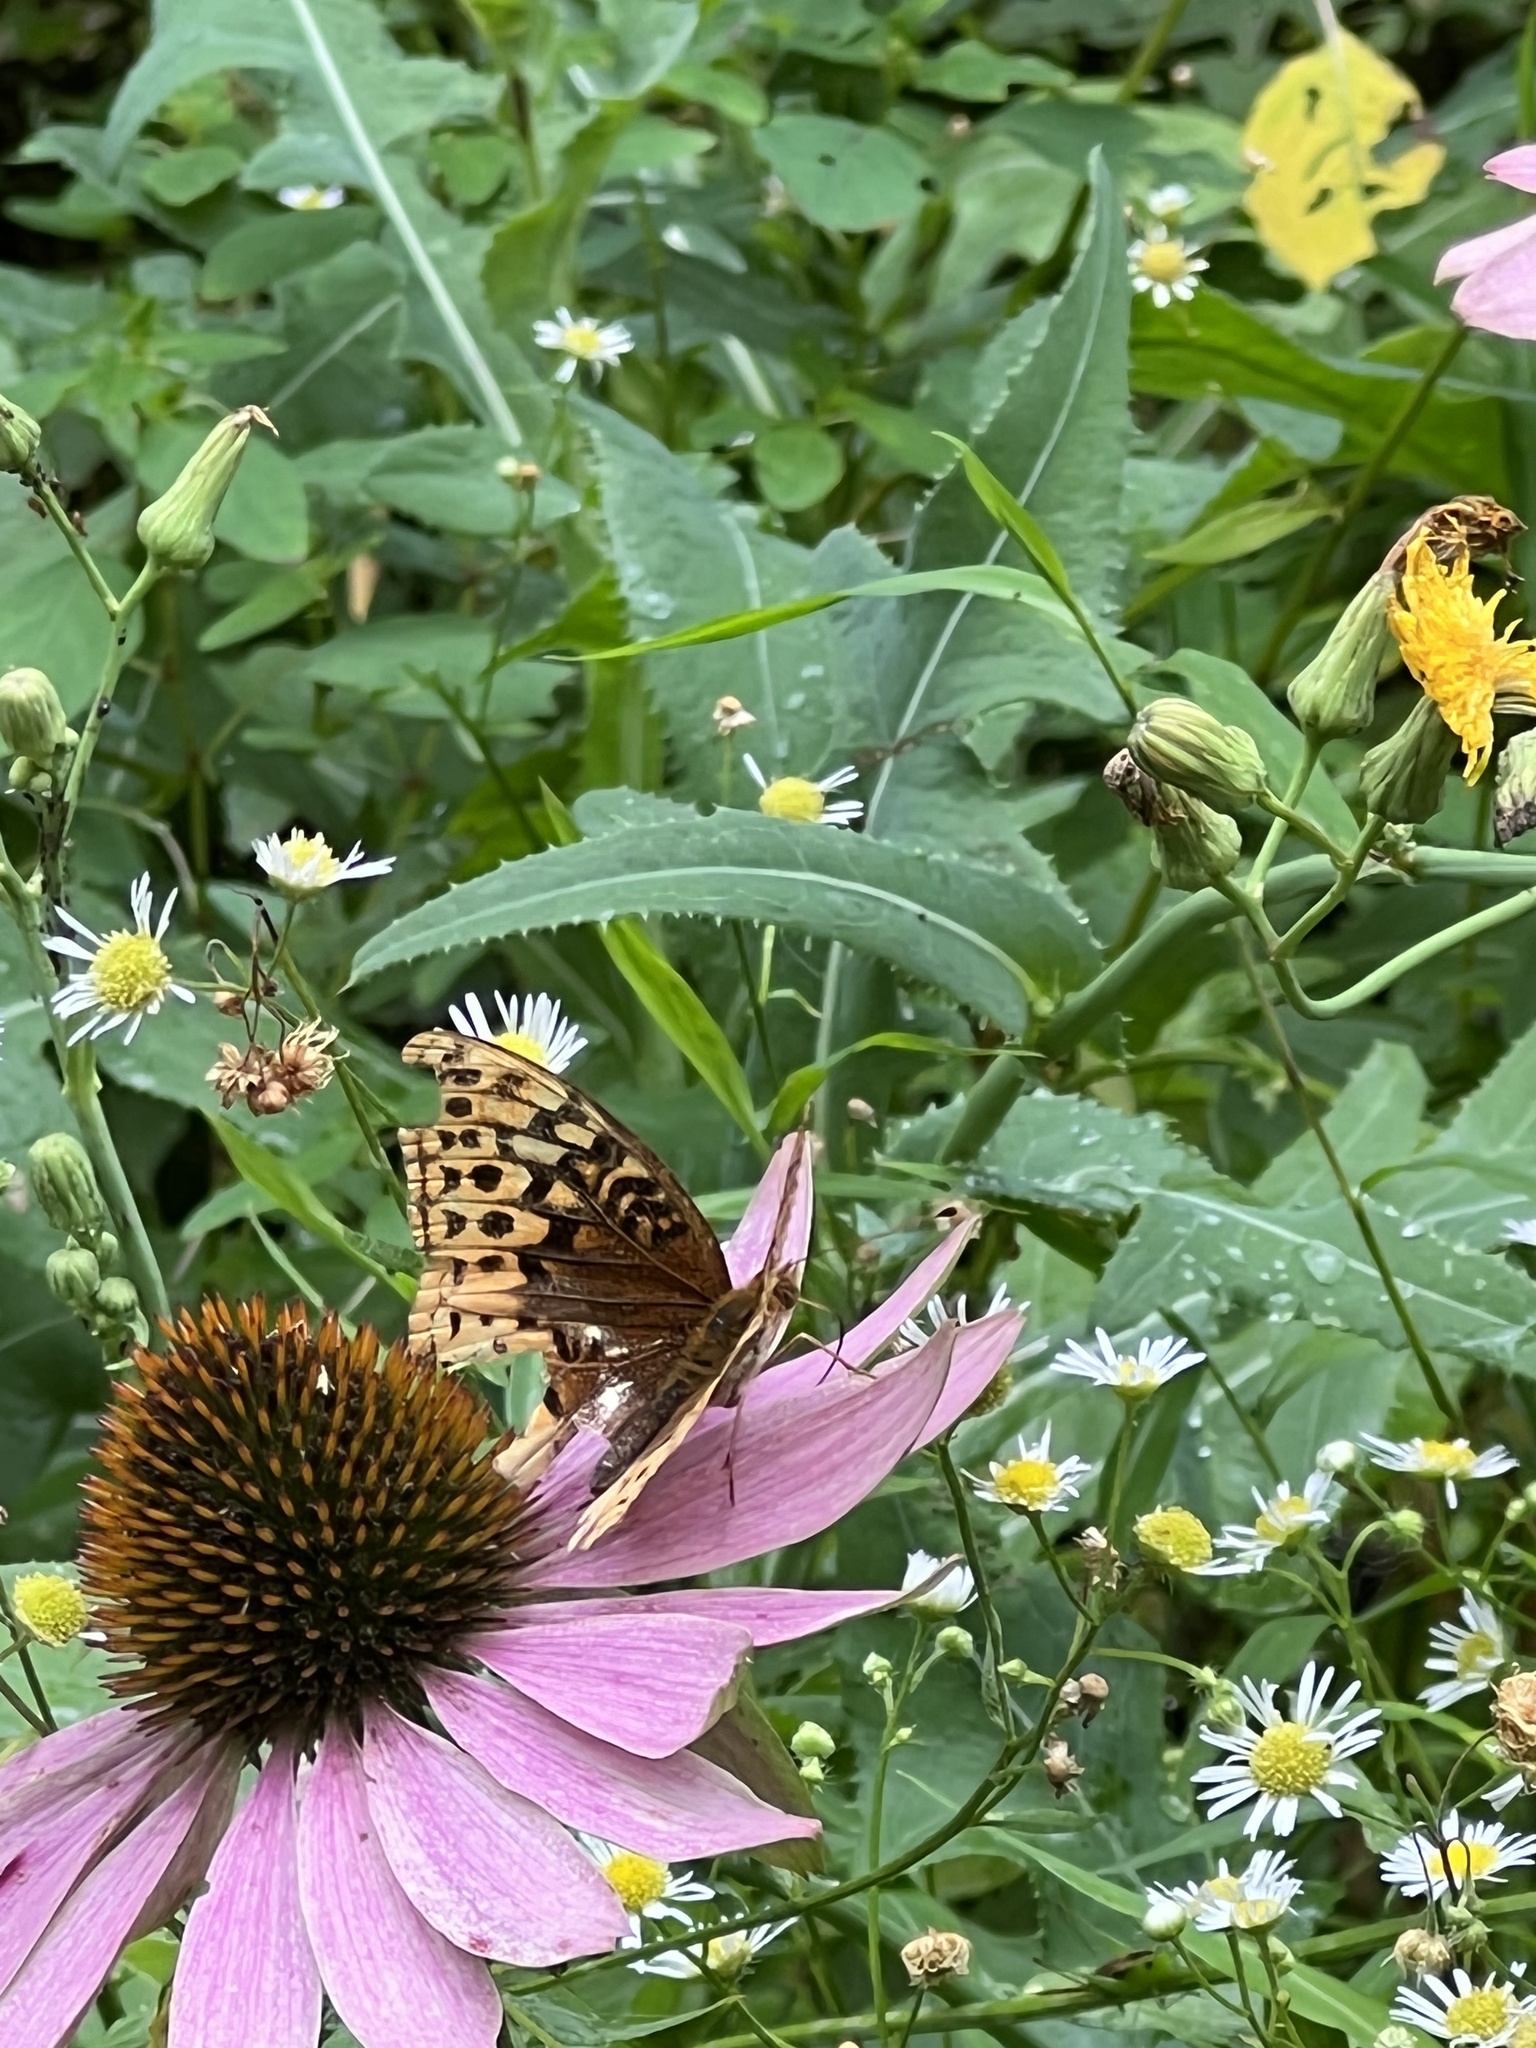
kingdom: Animalia
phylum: Arthropoda
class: Insecta
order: Lepidoptera
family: Nymphalidae
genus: Speyeria
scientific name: Speyeria cybele
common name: Great spangled fritillary
